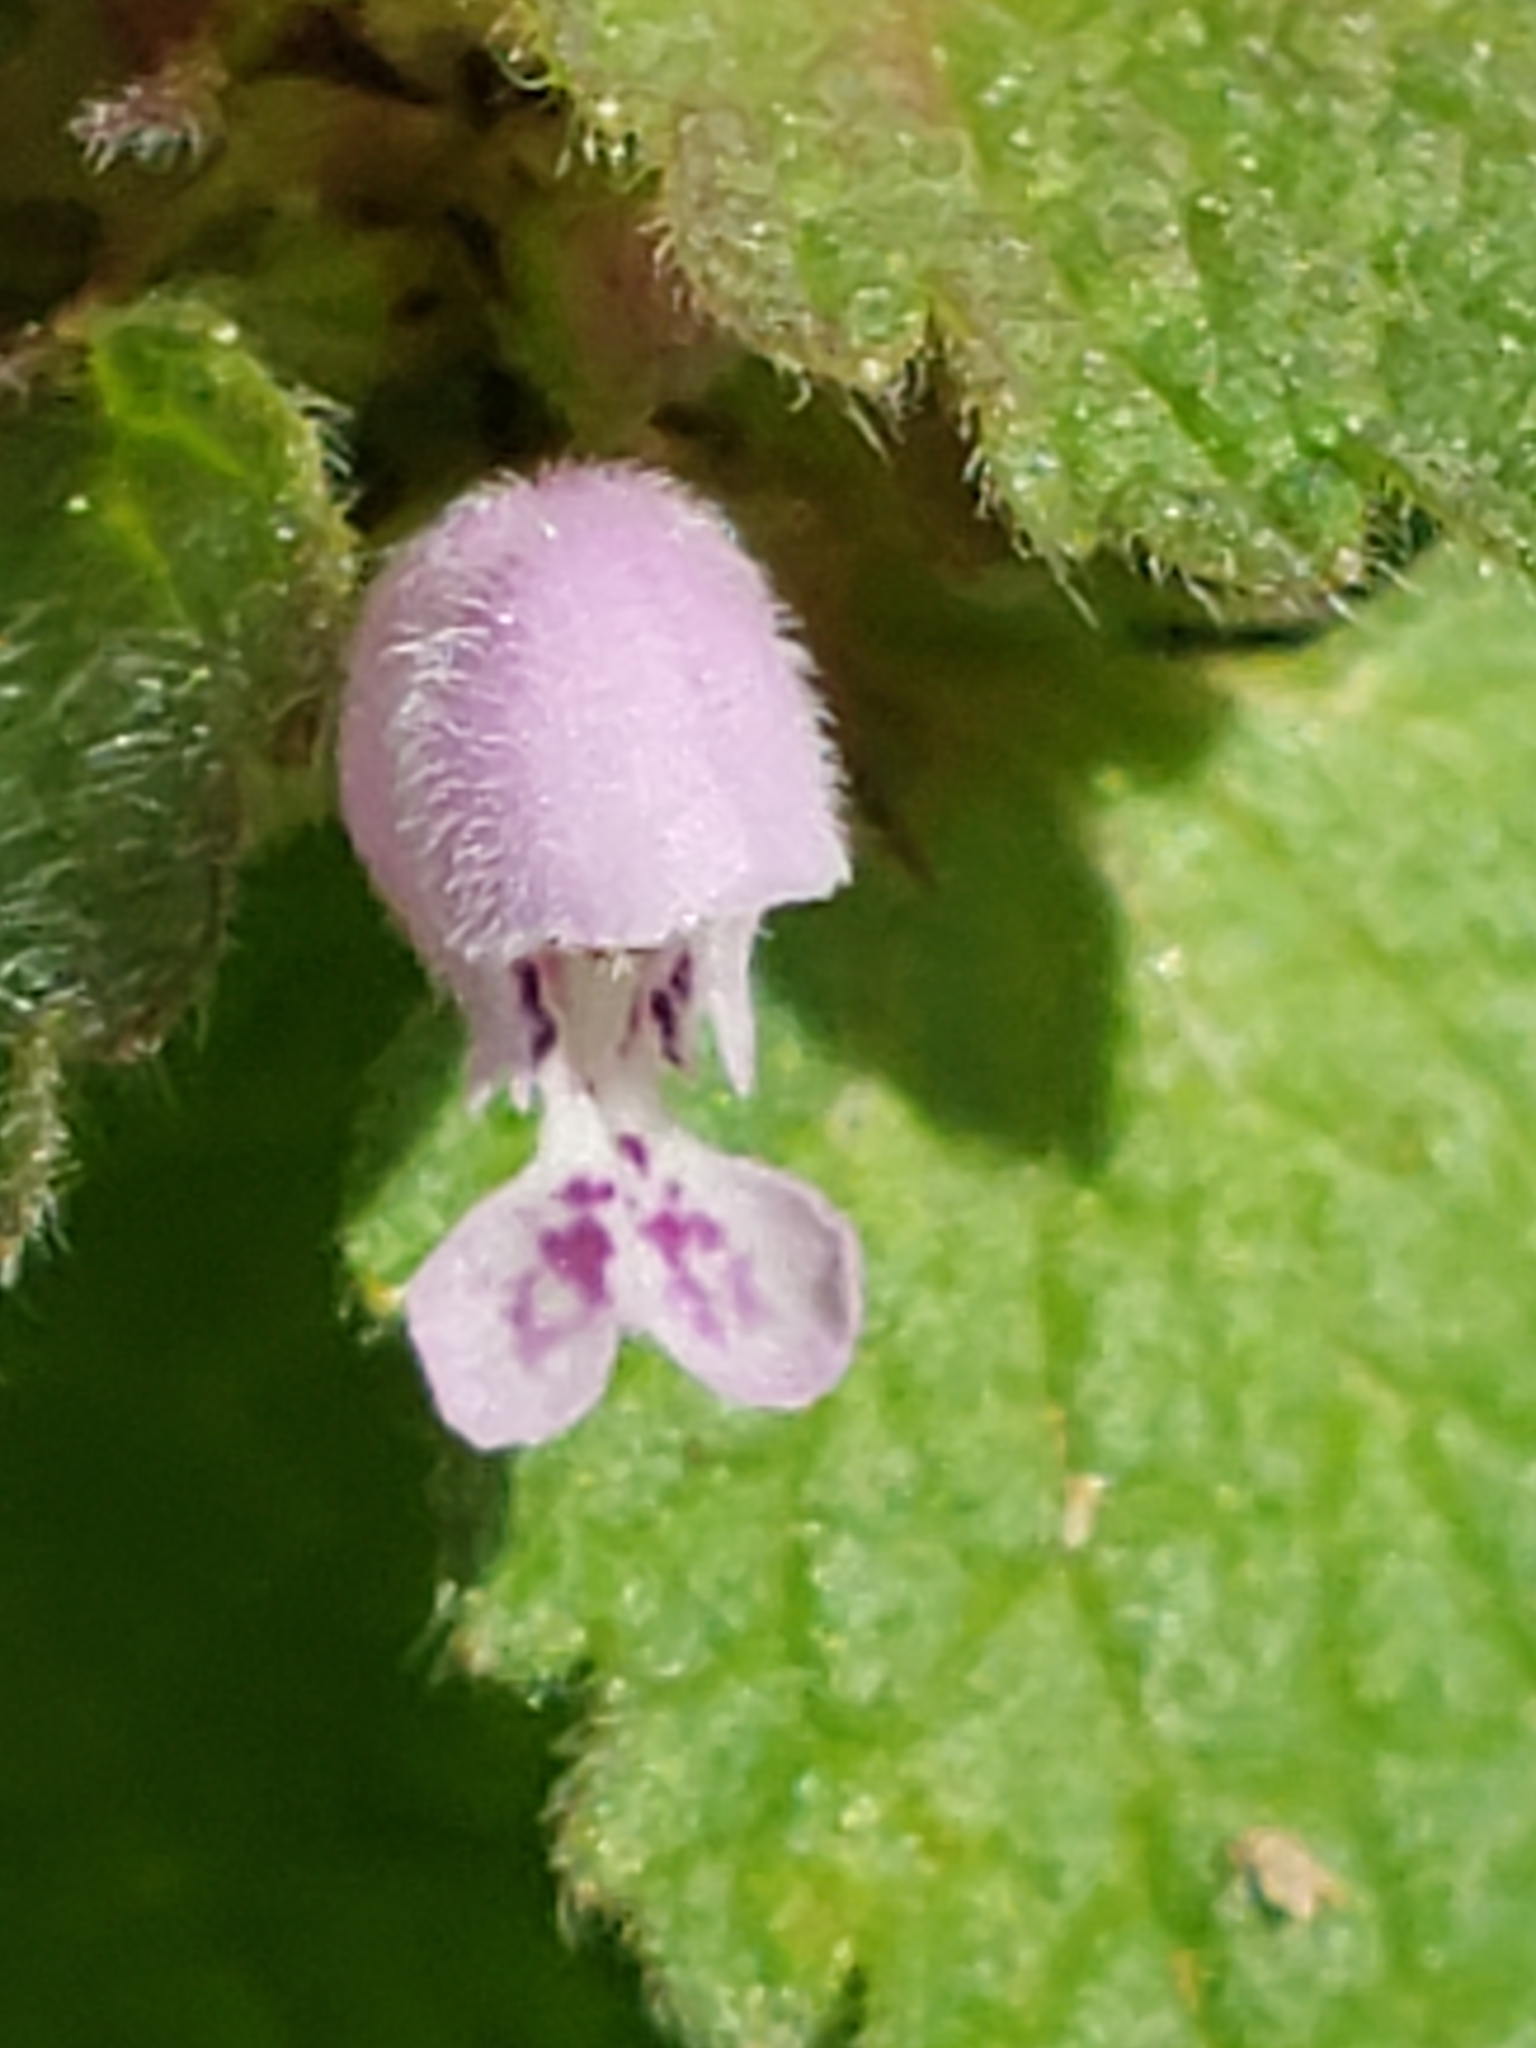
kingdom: Plantae
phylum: Tracheophyta
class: Magnoliopsida
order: Lamiales
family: Lamiaceae
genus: Lamium
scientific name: Lamium purpureum
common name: Red dead-nettle
